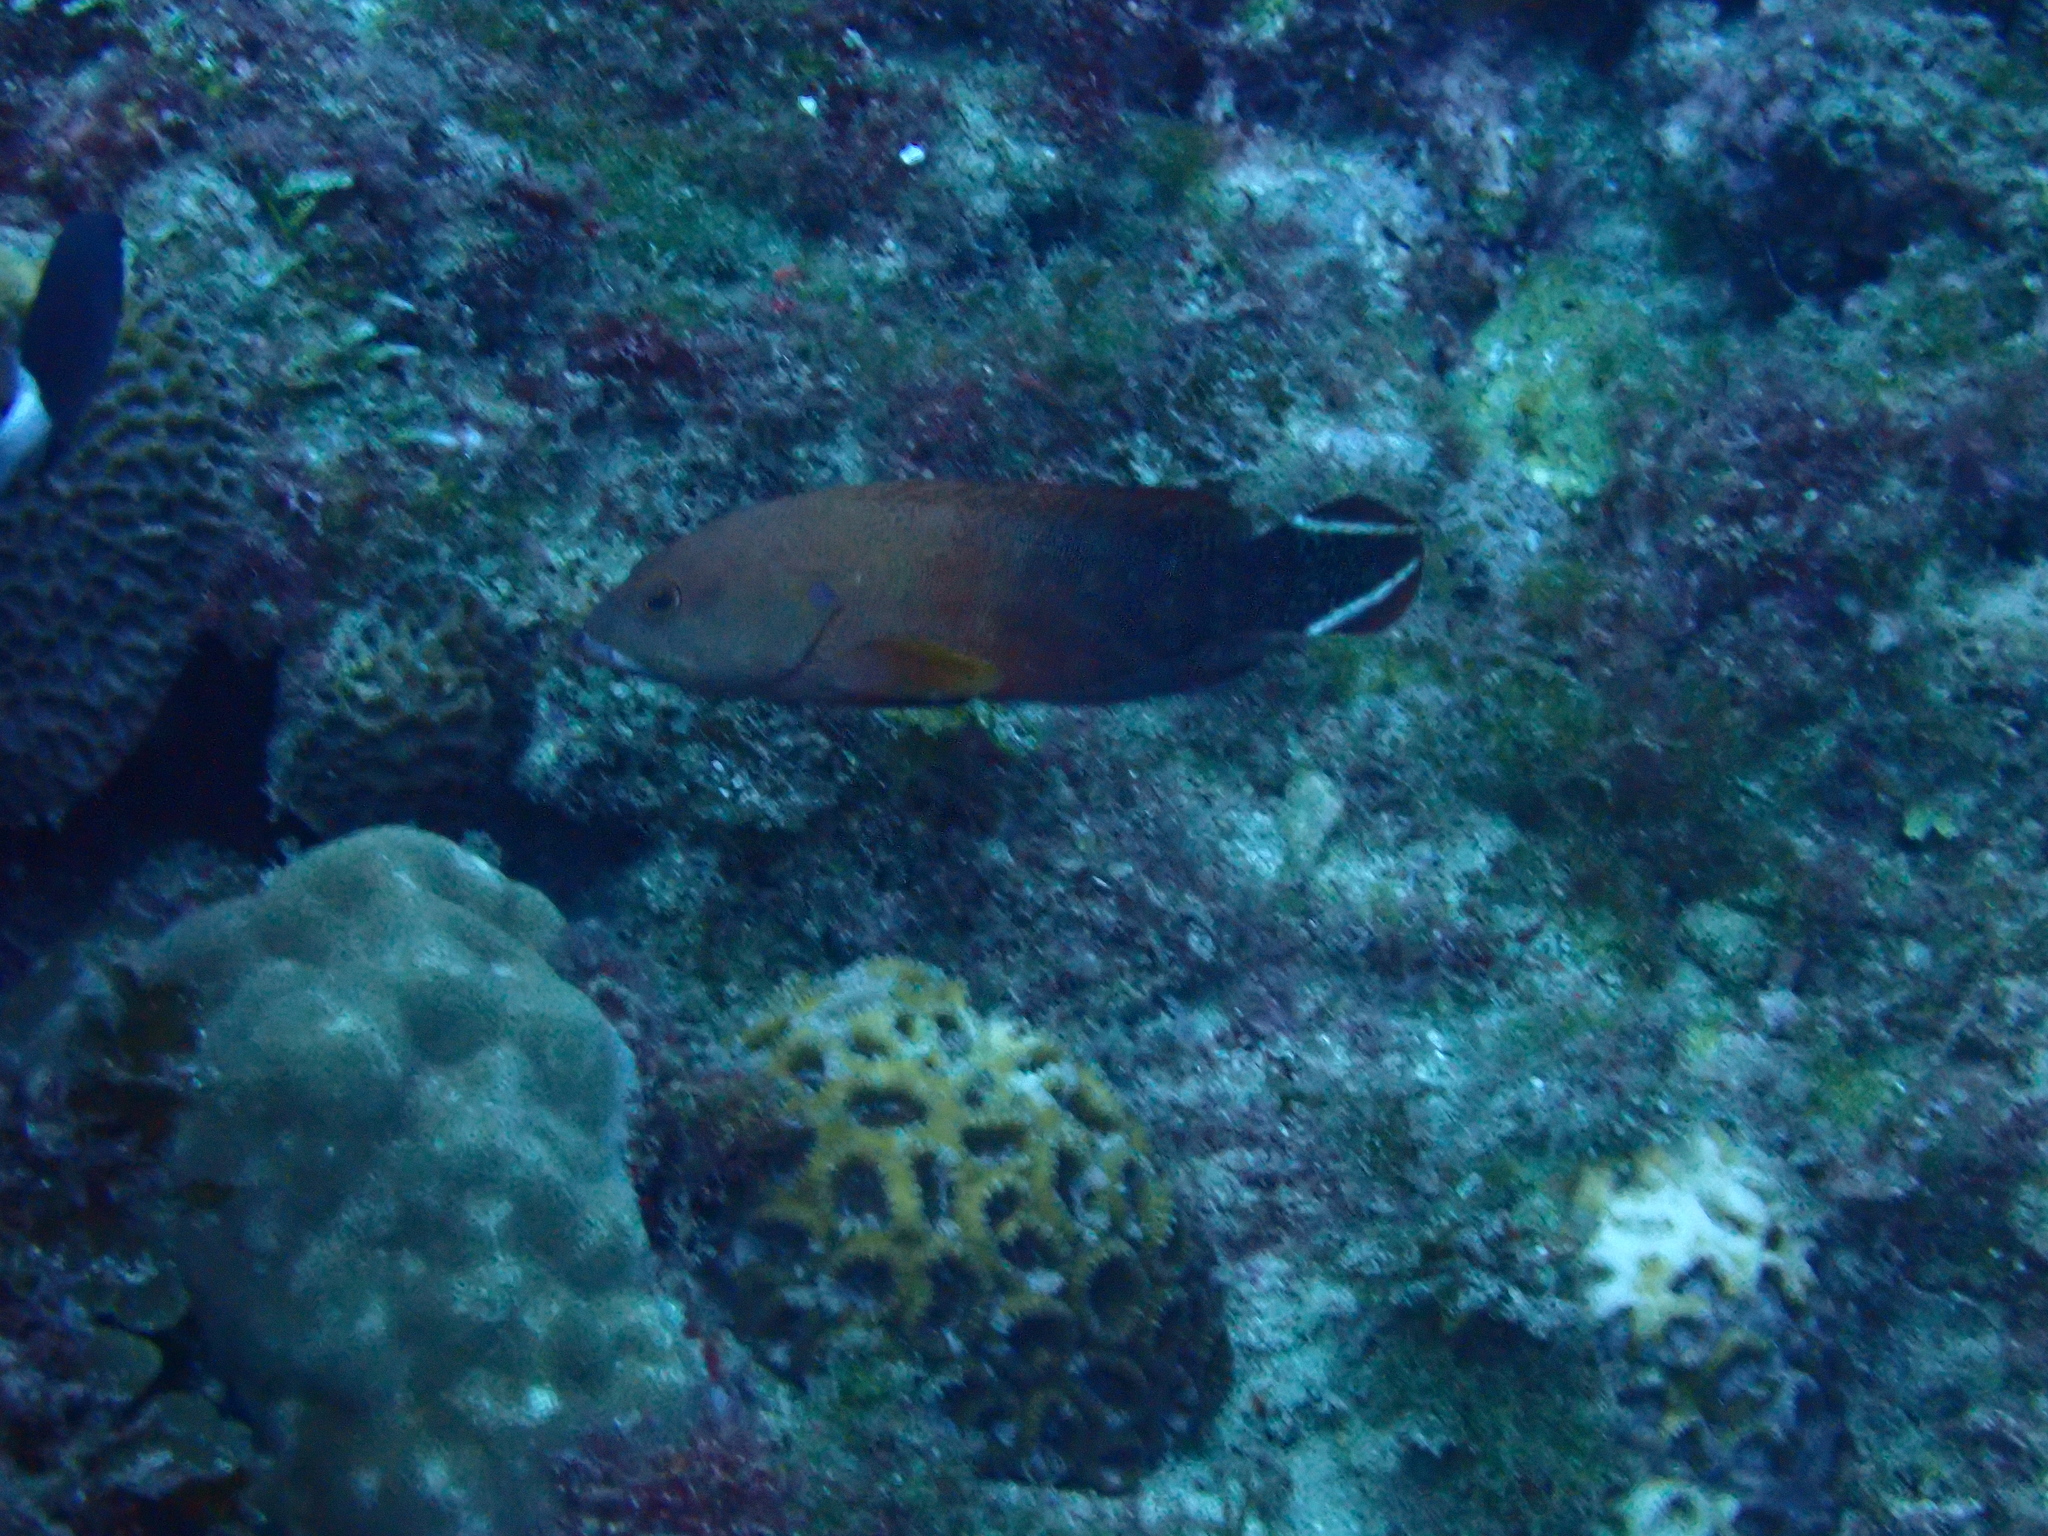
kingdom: Animalia
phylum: Chordata
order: Perciformes
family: Serranidae
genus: Cephalopholis
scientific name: Cephalopholis urodeta
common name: Darkfin hind
